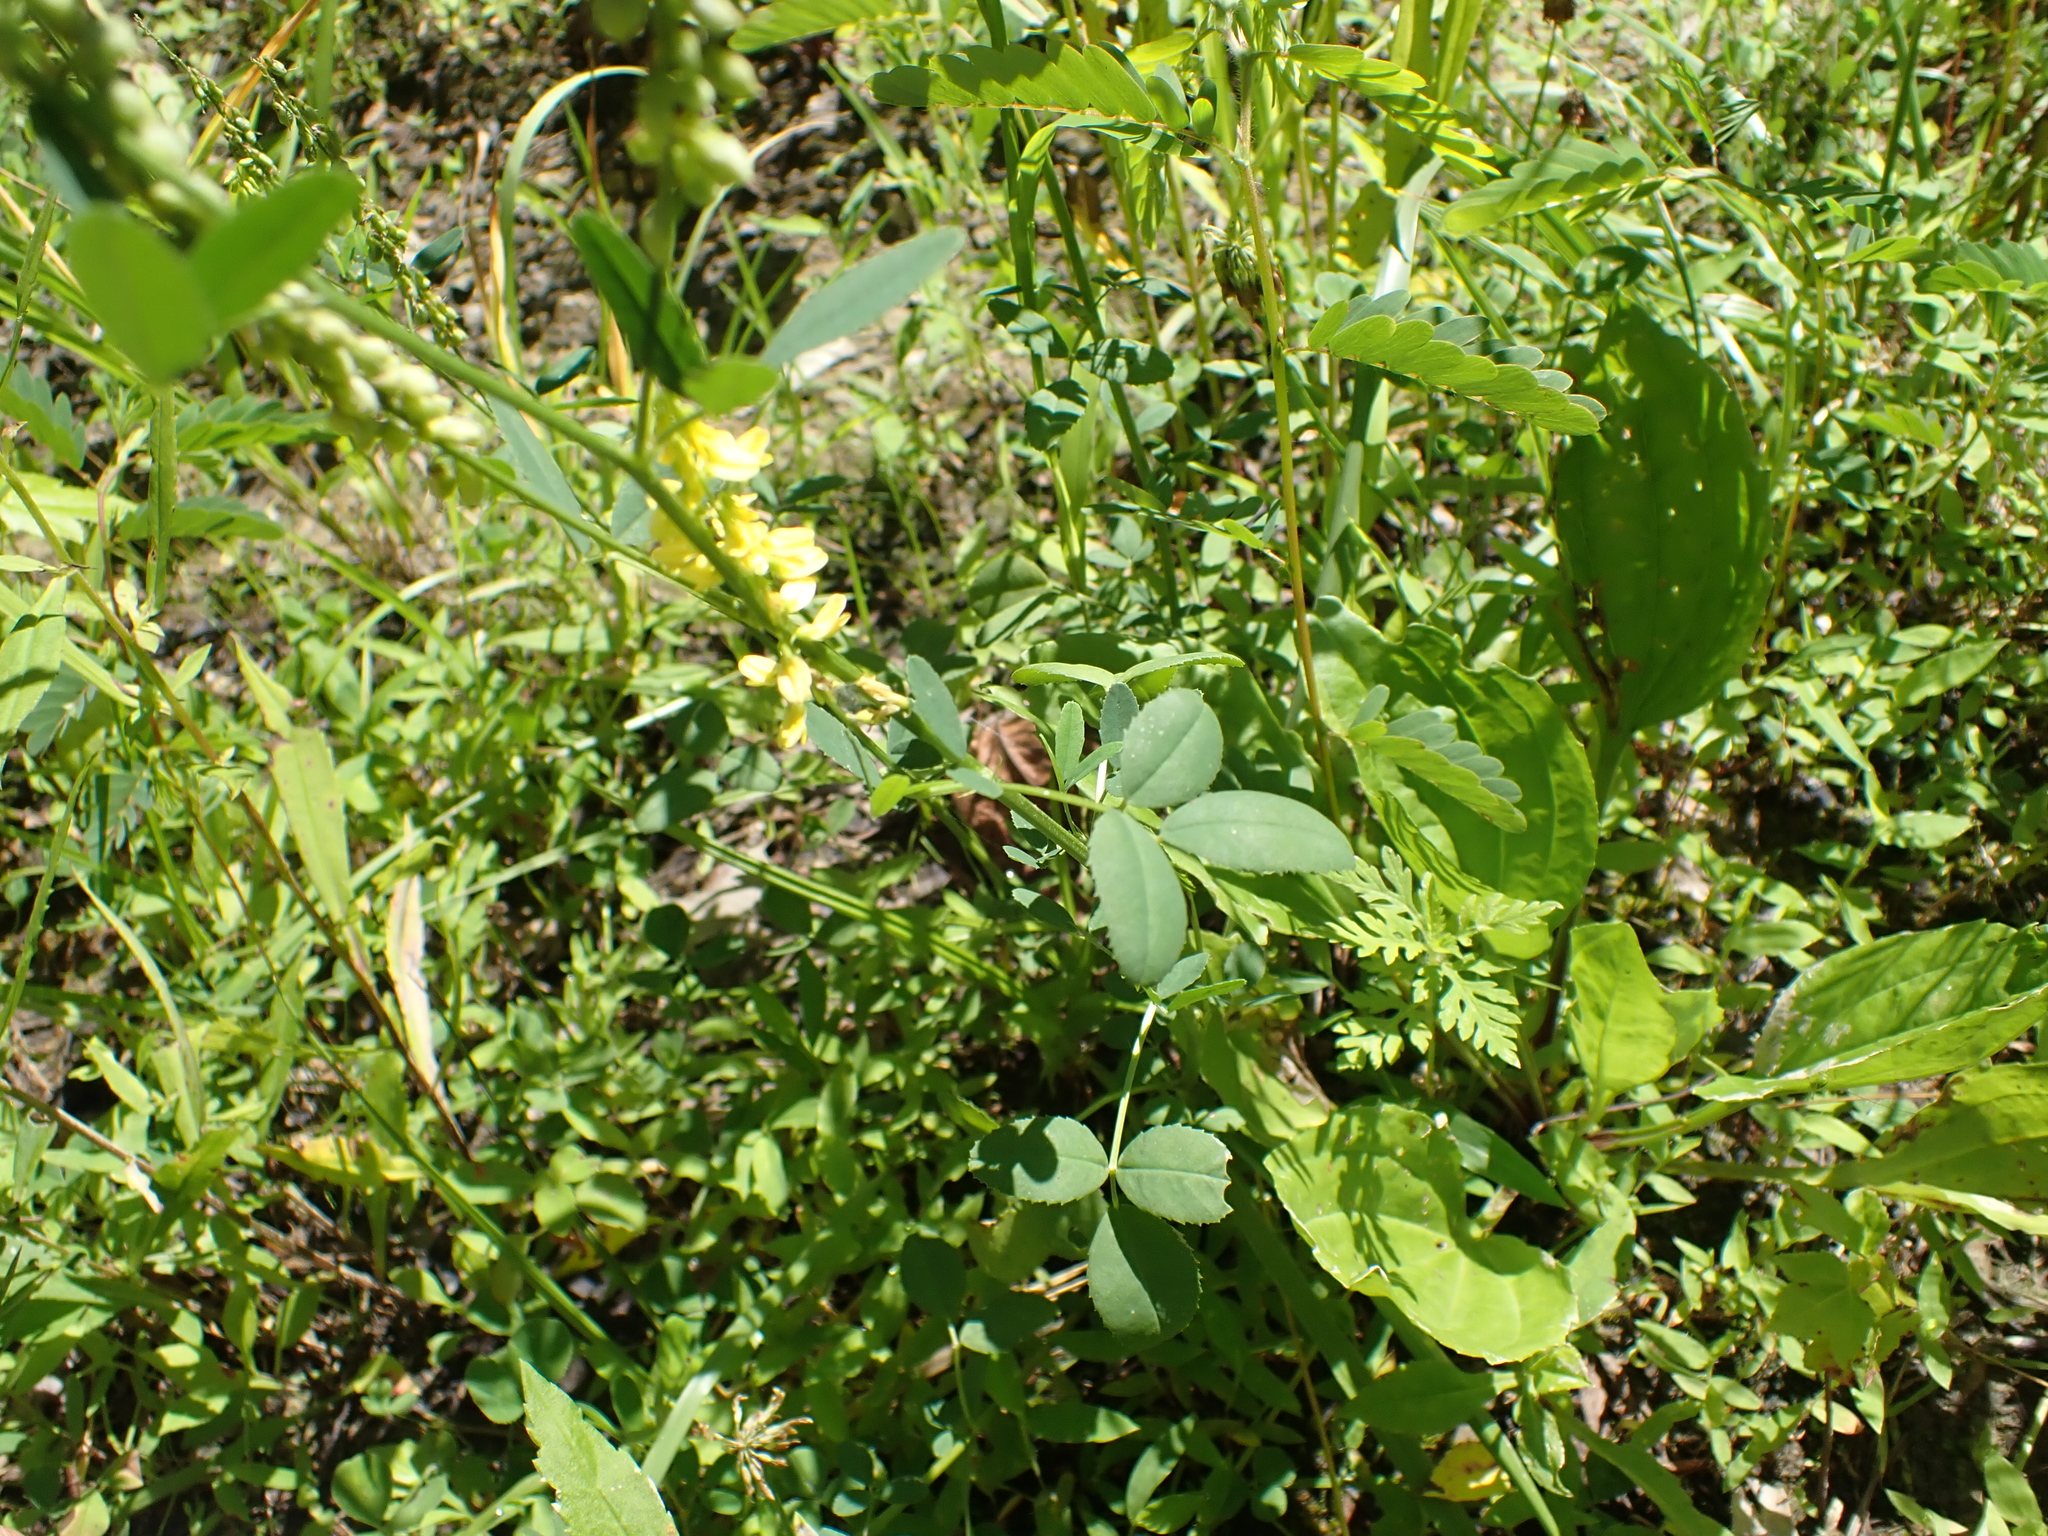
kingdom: Plantae
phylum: Tracheophyta
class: Magnoliopsida
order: Fabales
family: Fabaceae
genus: Melilotus
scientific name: Melilotus officinalis
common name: Sweetclover
